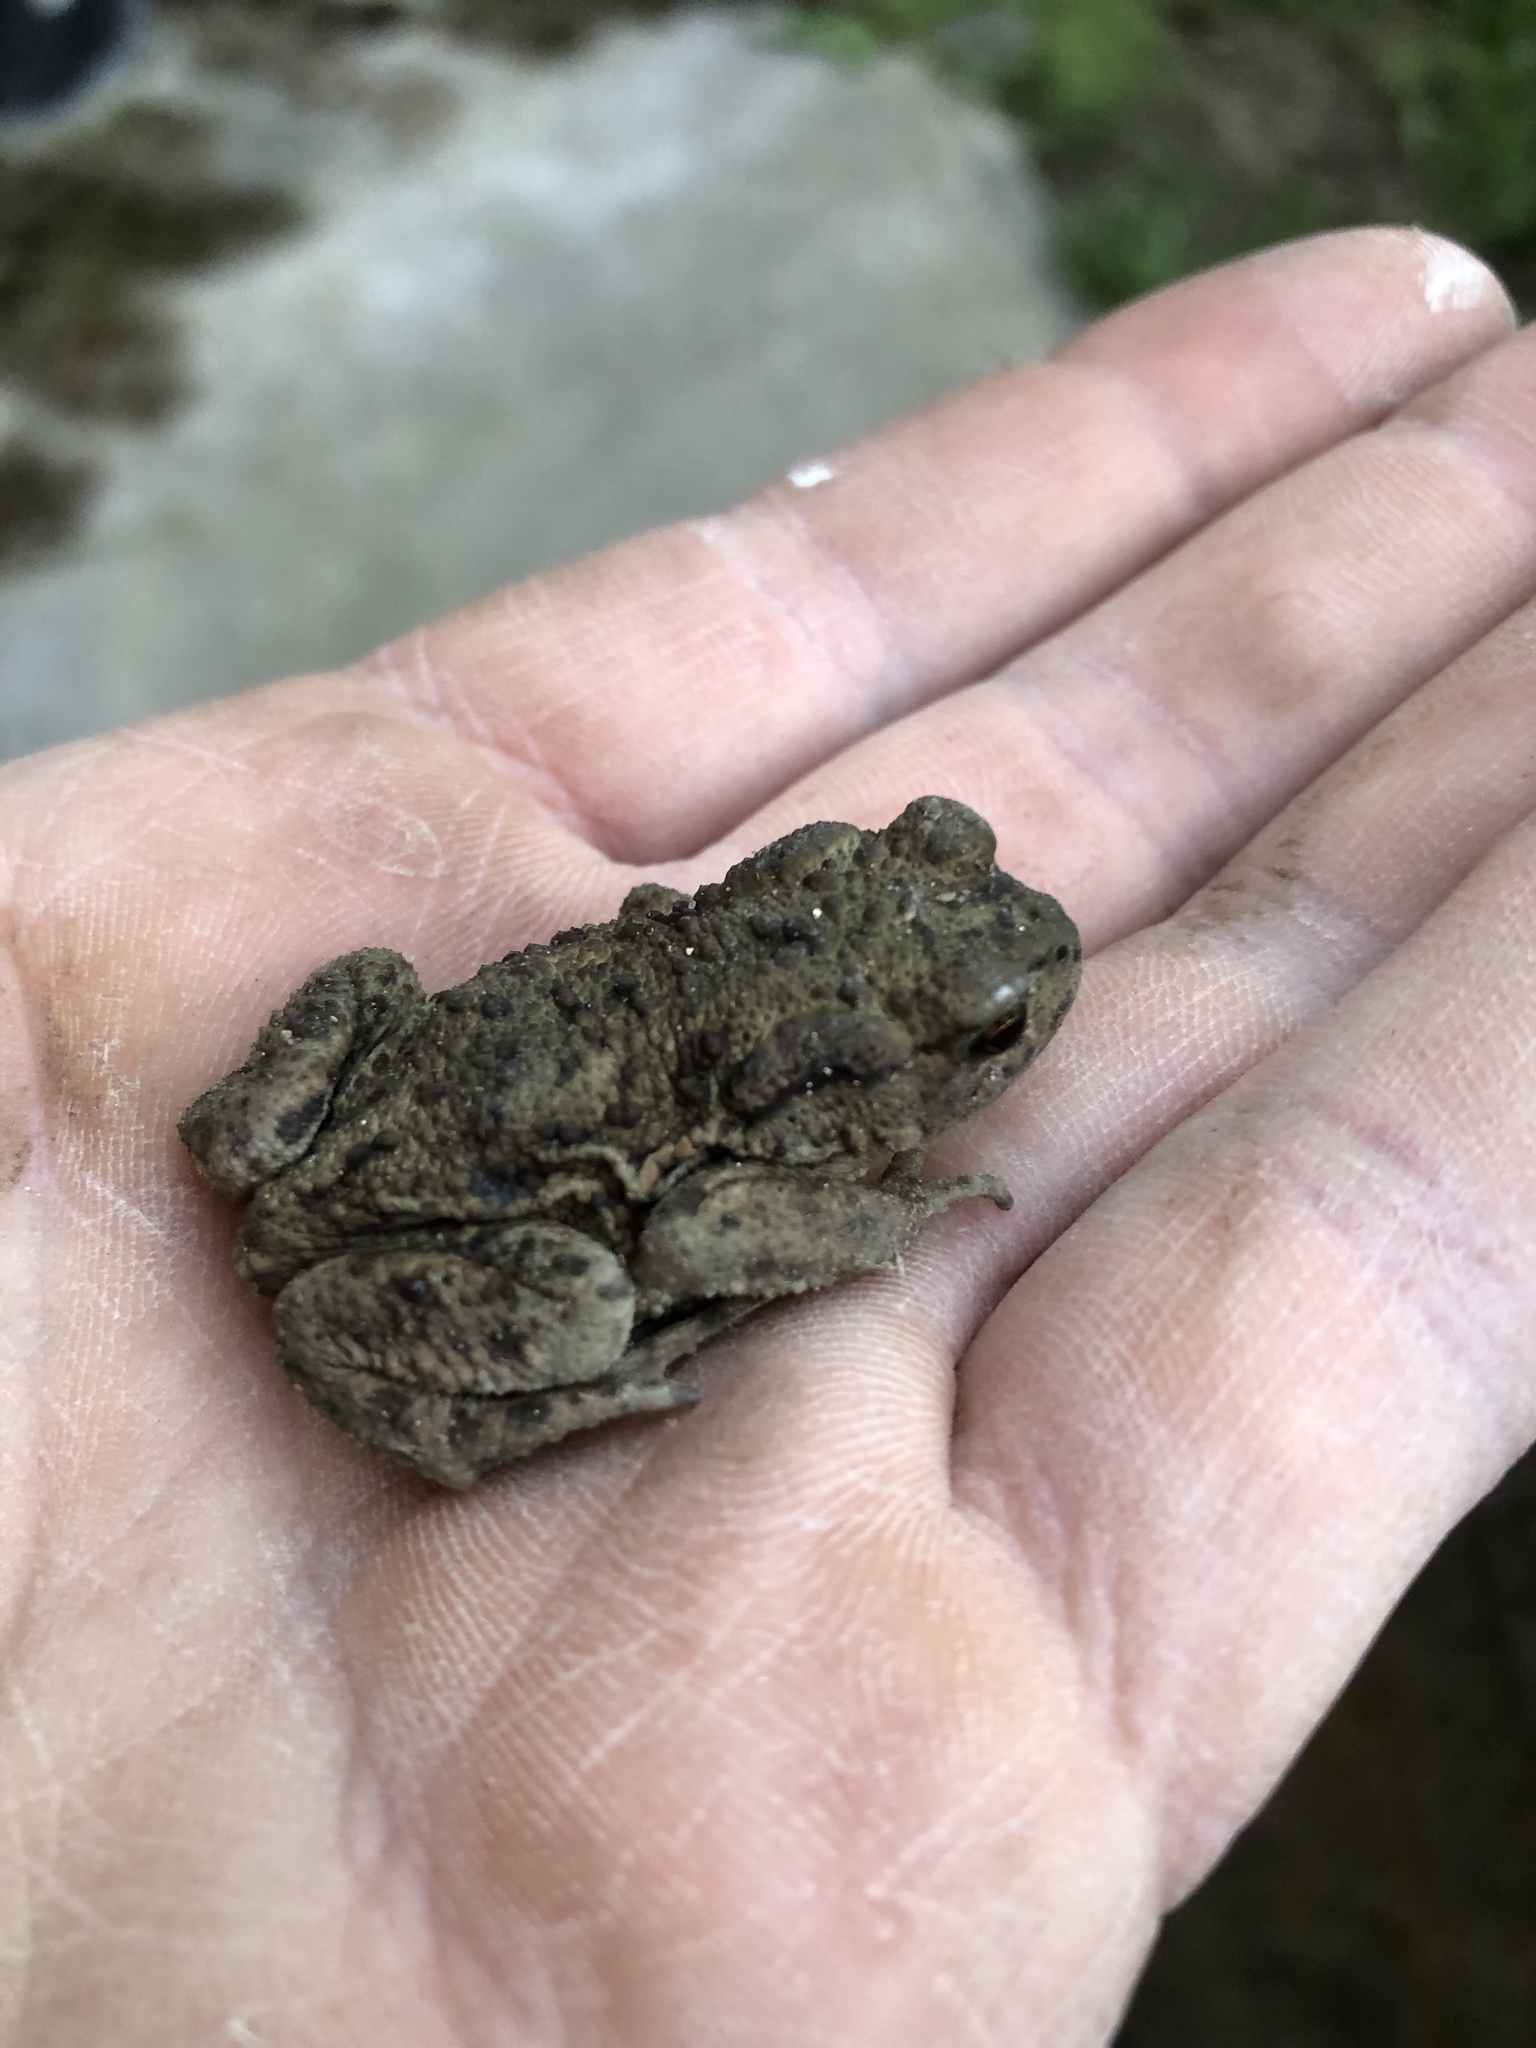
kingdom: Animalia
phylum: Chordata
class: Amphibia
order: Anura
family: Bufonidae
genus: Bufo
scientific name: Bufo bufo
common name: Common toad
